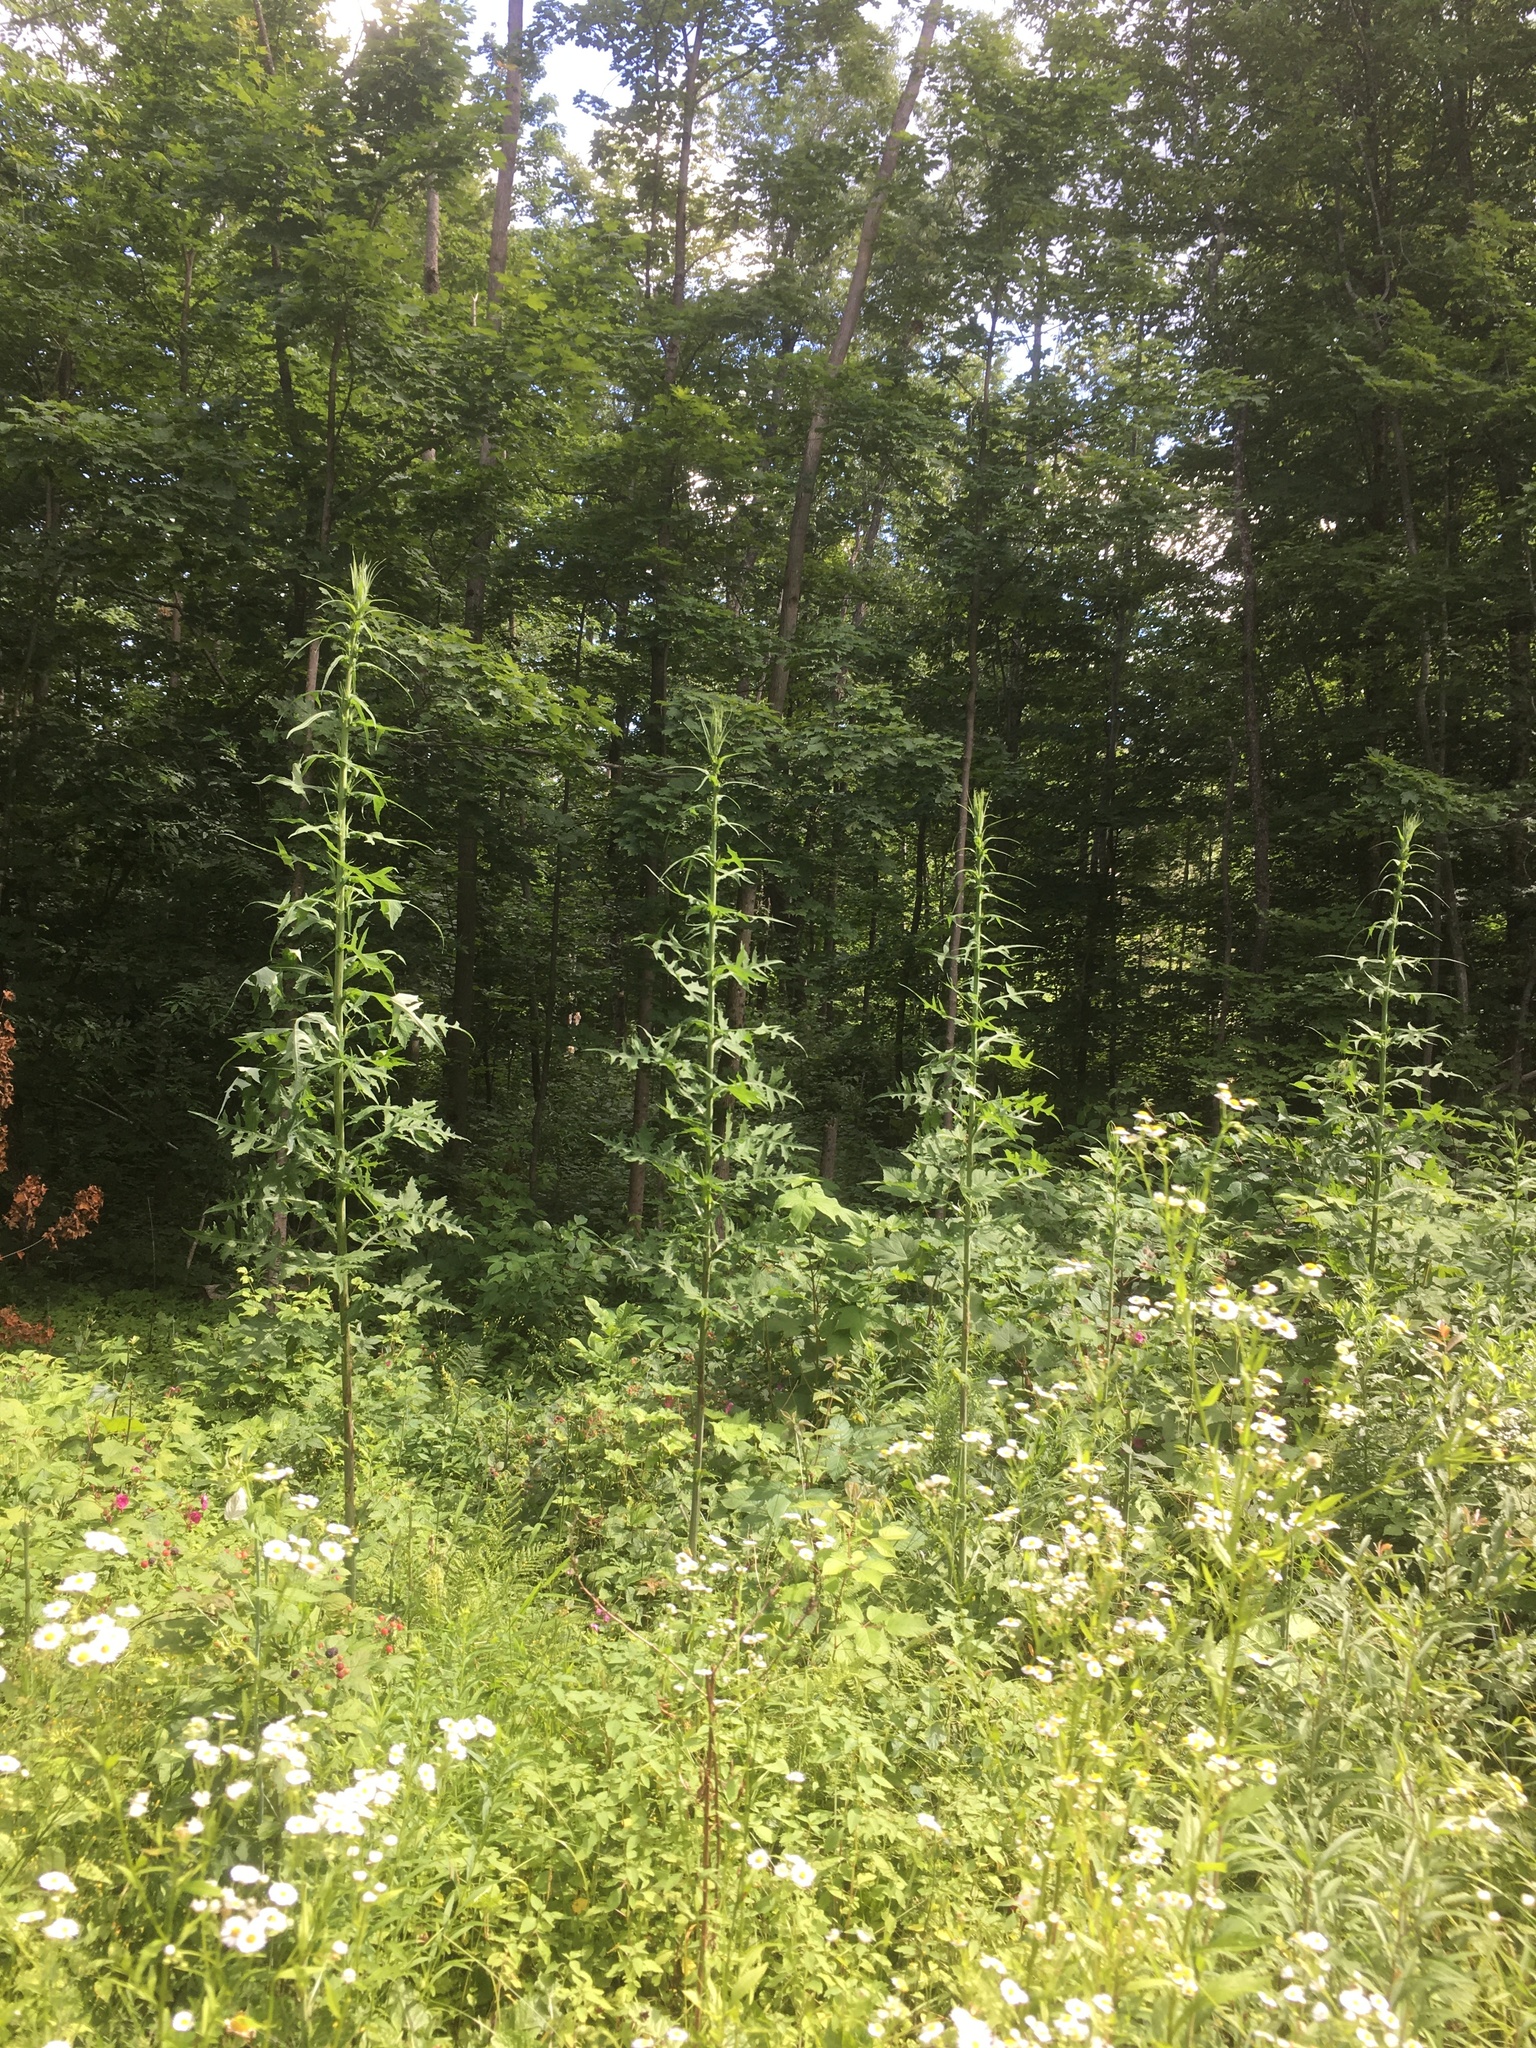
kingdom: Plantae
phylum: Tracheophyta
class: Magnoliopsida
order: Asterales
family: Asteraceae
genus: Lactuca
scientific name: Lactuca biennis
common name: Blue wood lettuce
